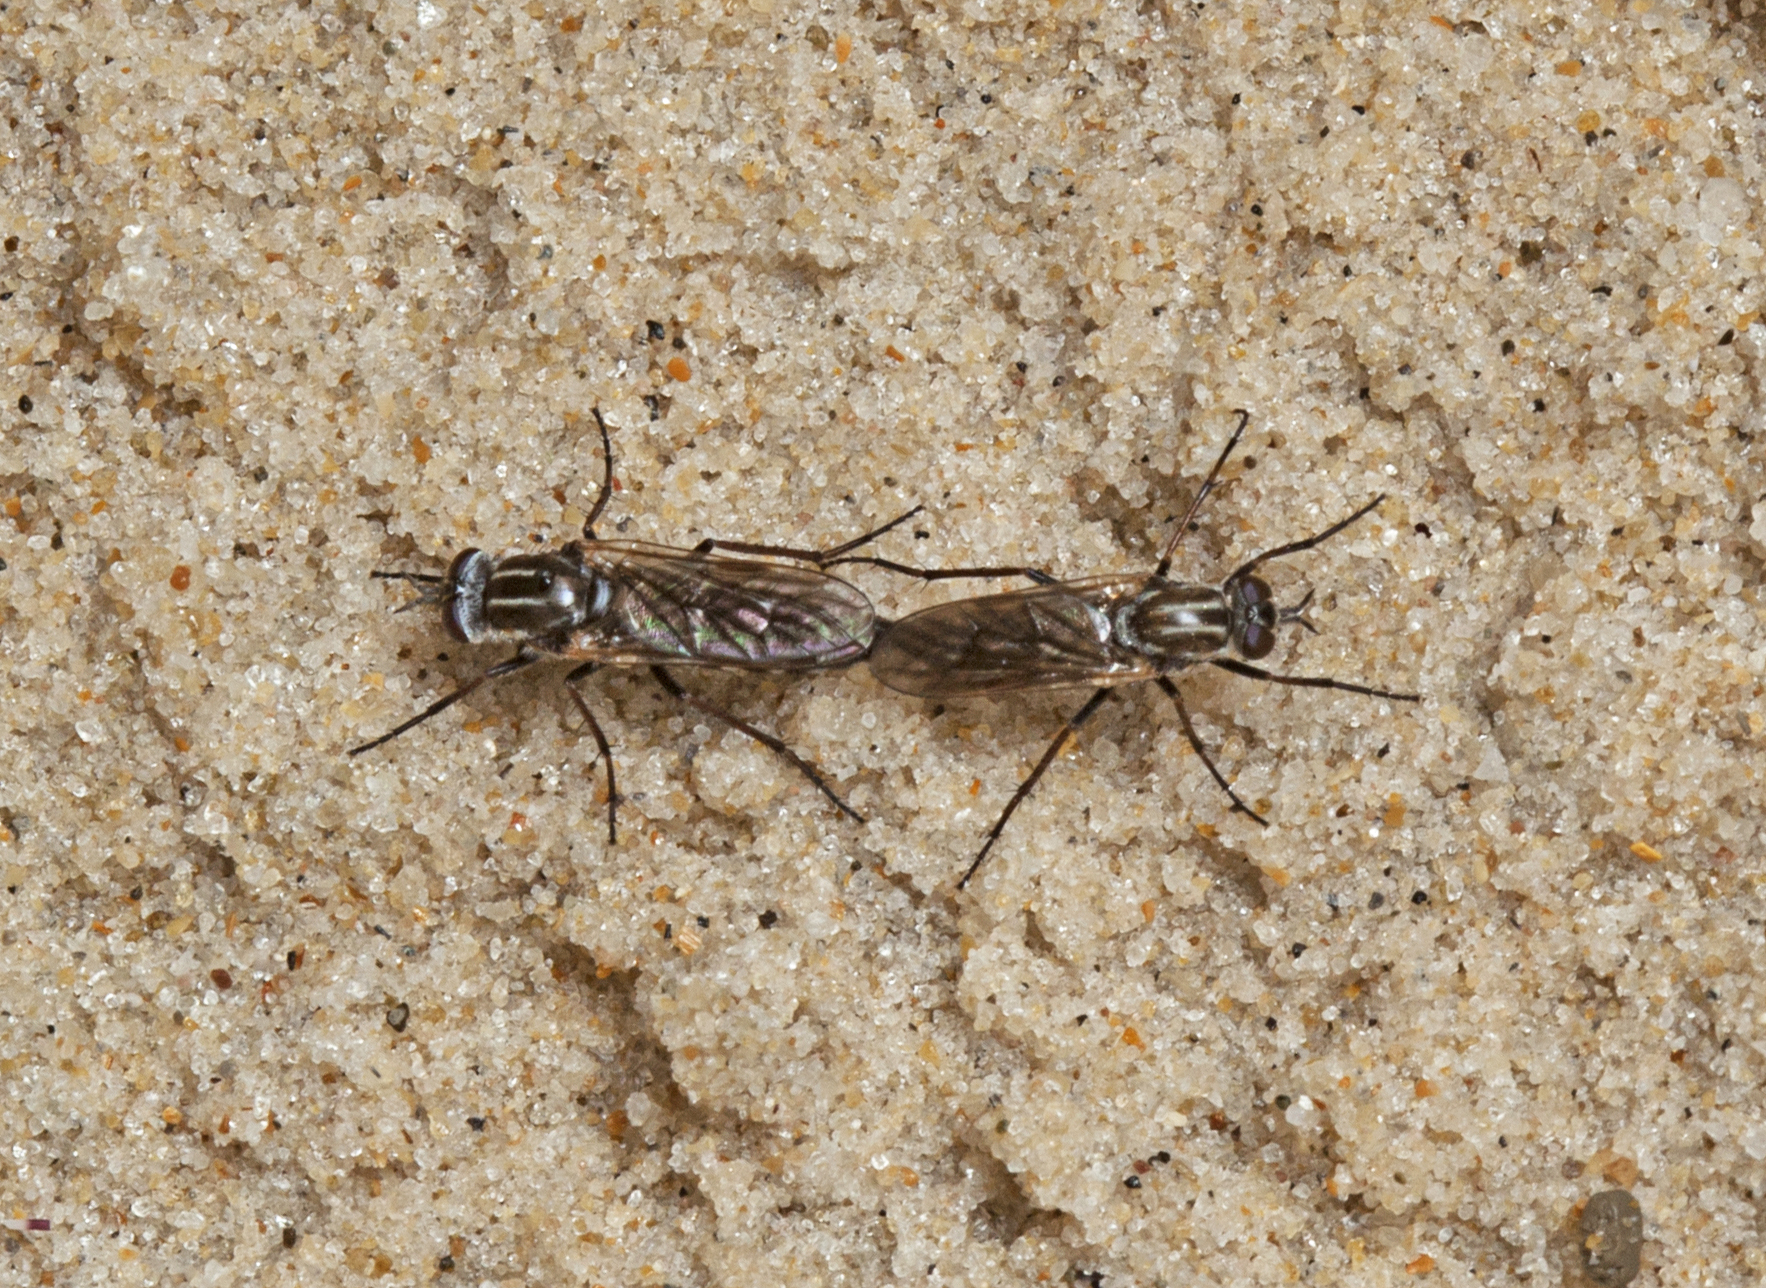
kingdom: Animalia
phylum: Arthropoda
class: Insecta
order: Diptera
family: Therevidae
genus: Anabarhynchus
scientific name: Anabarhynchus hyalipennis
